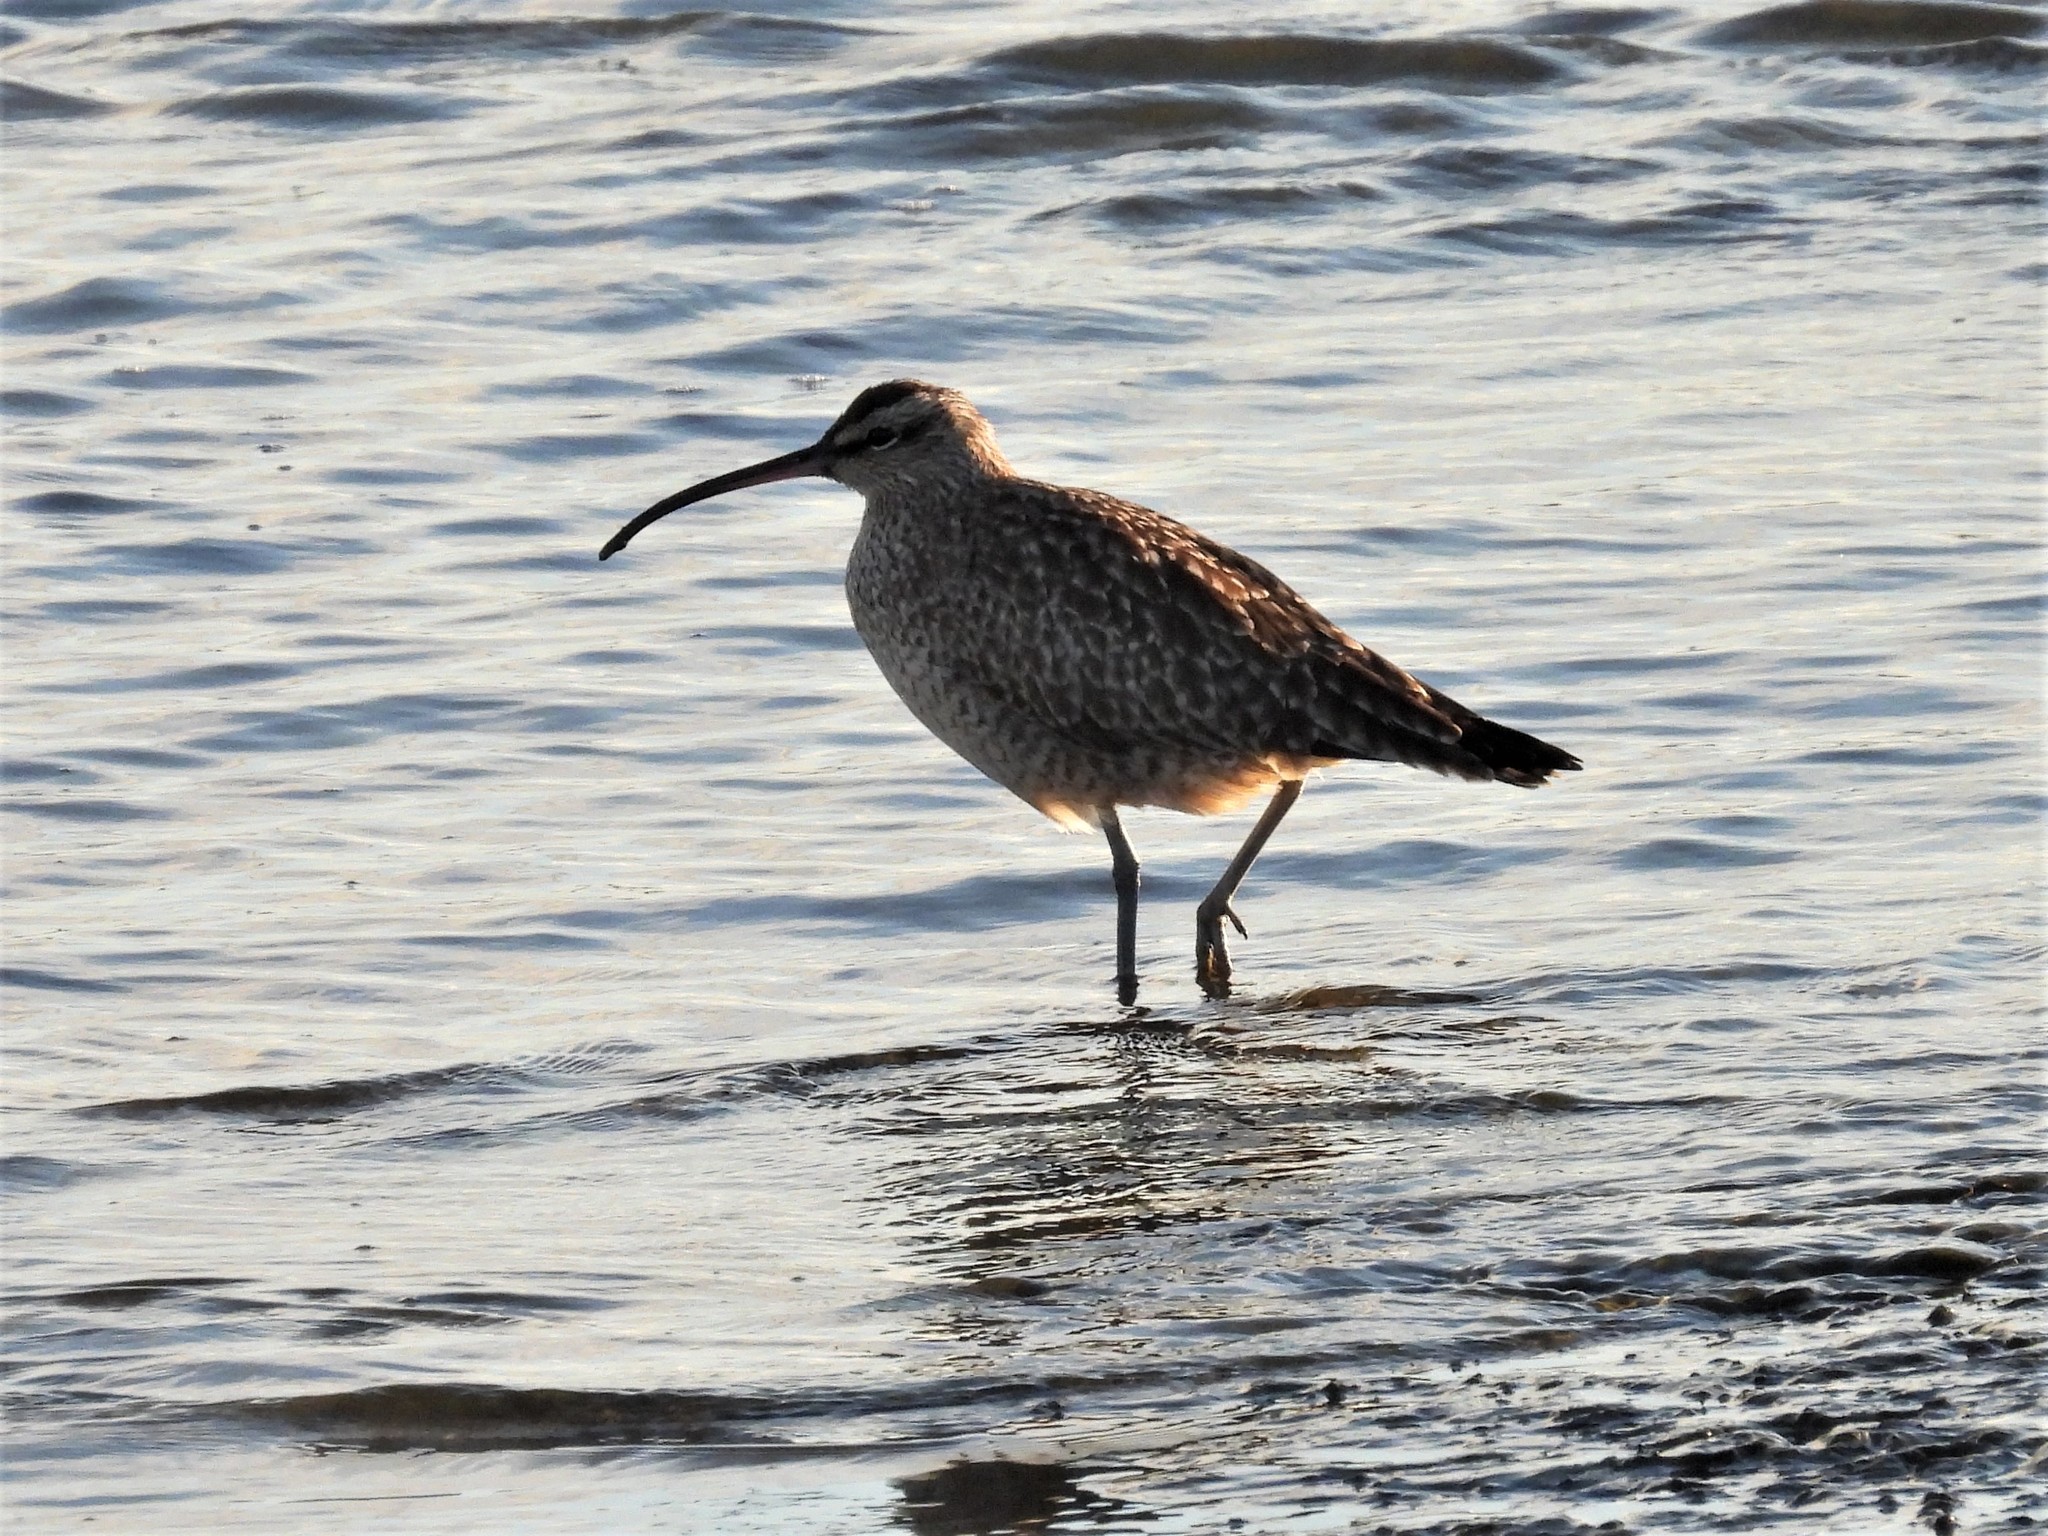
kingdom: Animalia
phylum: Chordata
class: Aves
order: Charadriiformes
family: Scolopacidae
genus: Numenius
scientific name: Numenius phaeopus
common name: Whimbrel
